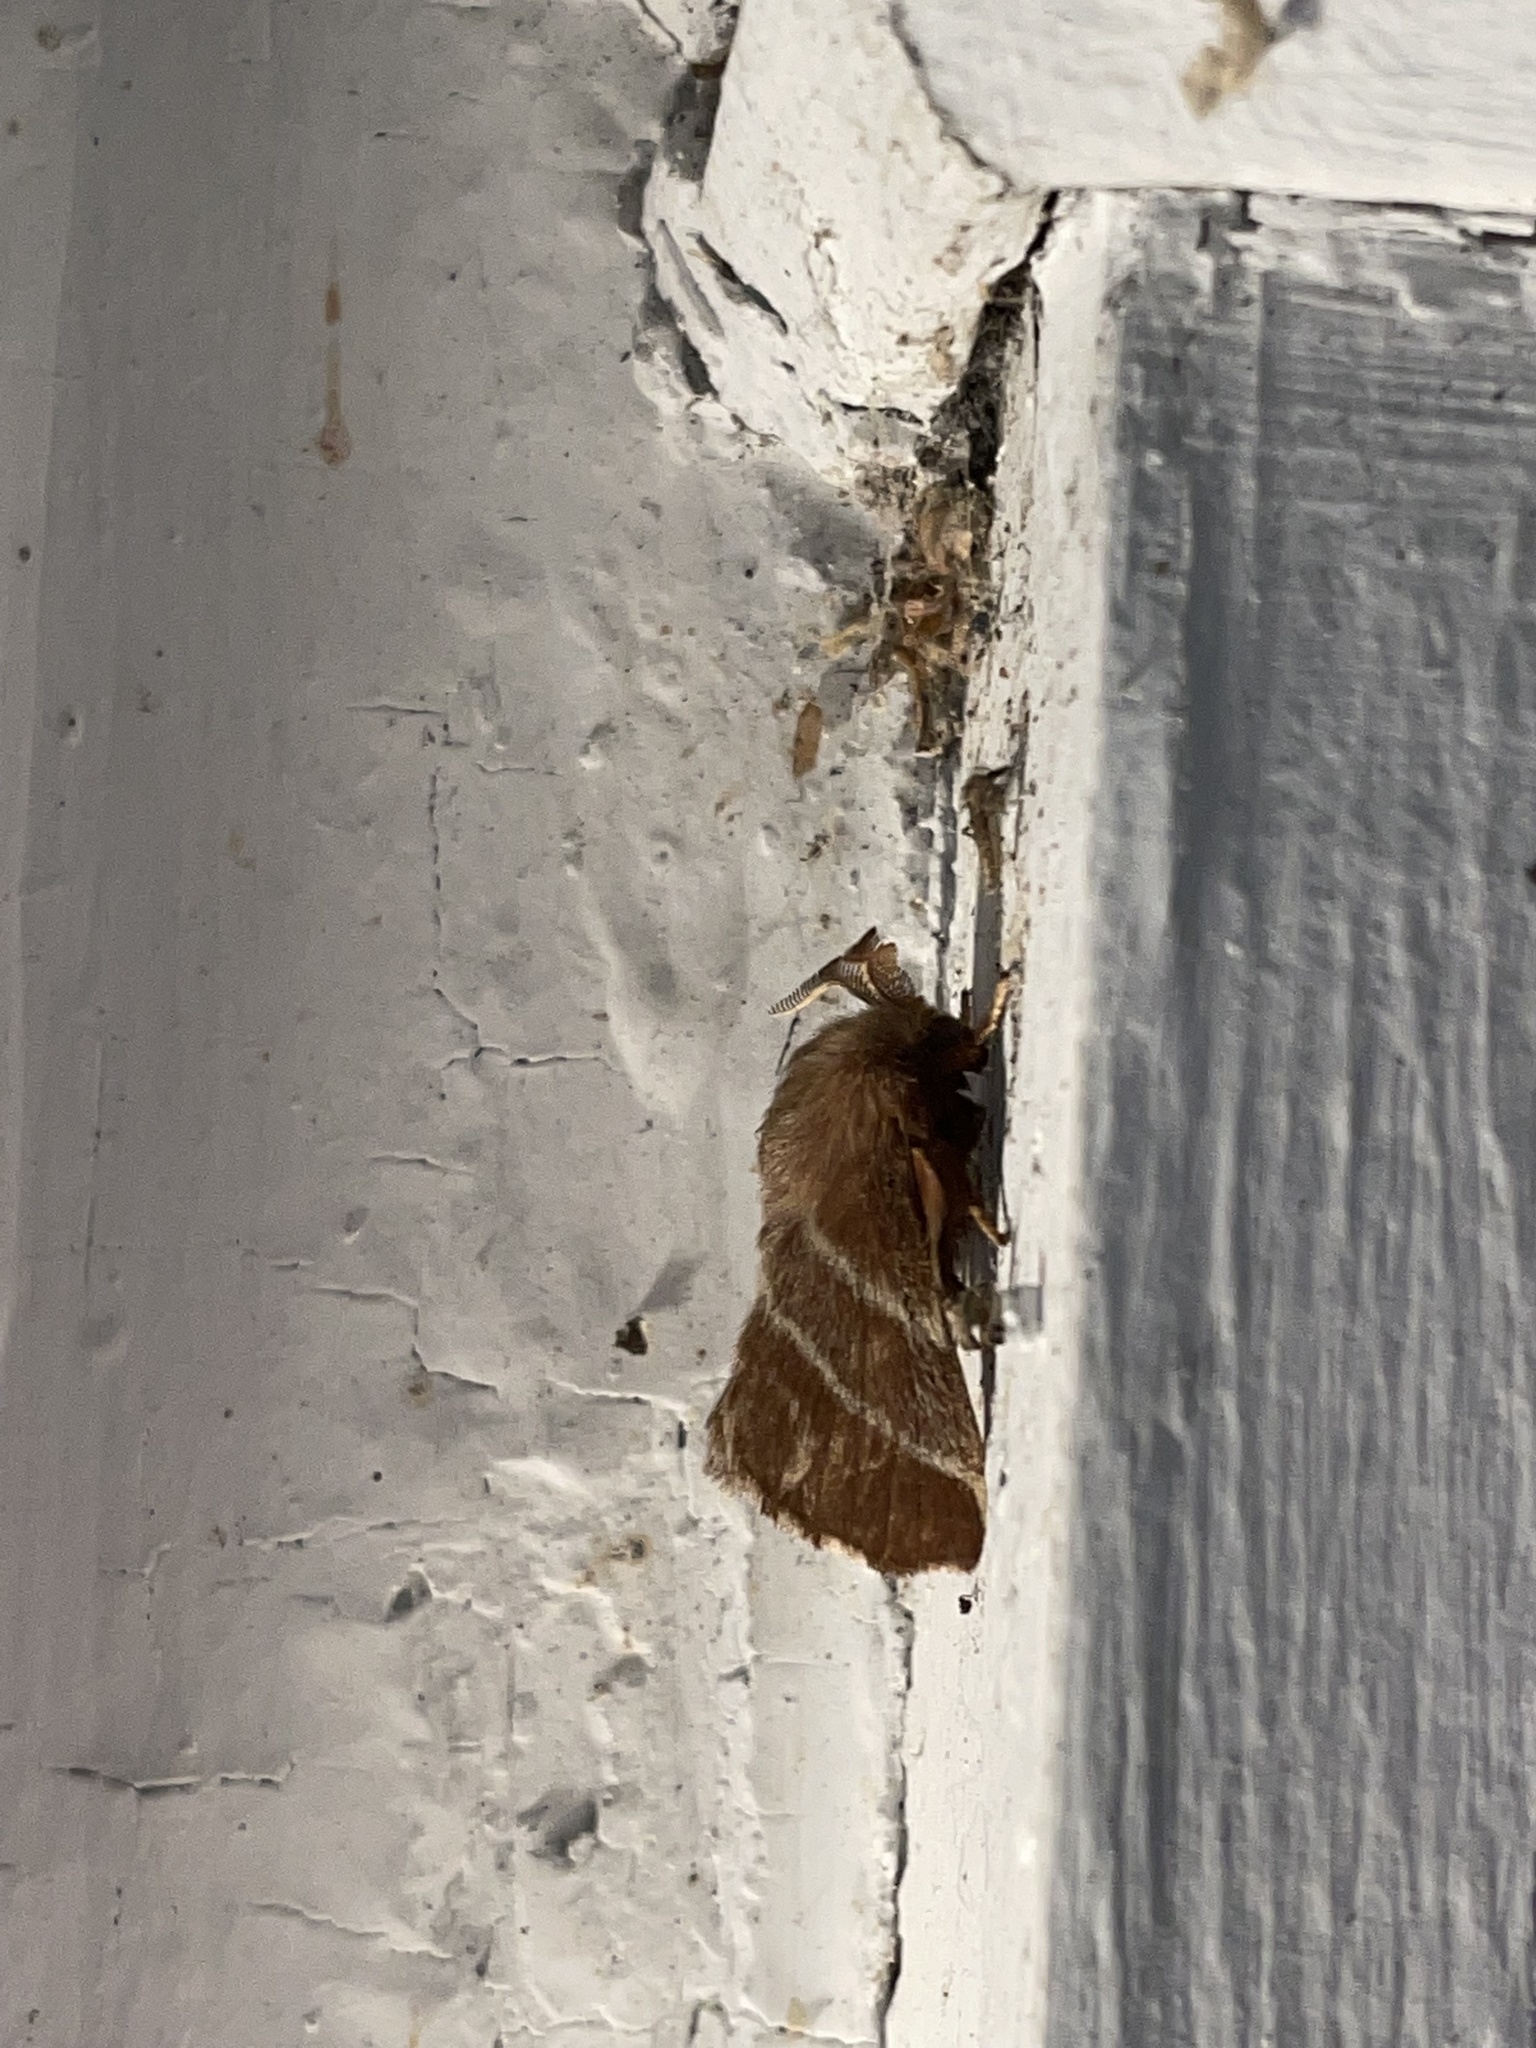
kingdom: Animalia
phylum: Arthropoda
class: Insecta
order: Lepidoptera
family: Lasiocampidae
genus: Malacosoma
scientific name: Malacosoma americana
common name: Eastern tent caterpillar moth
